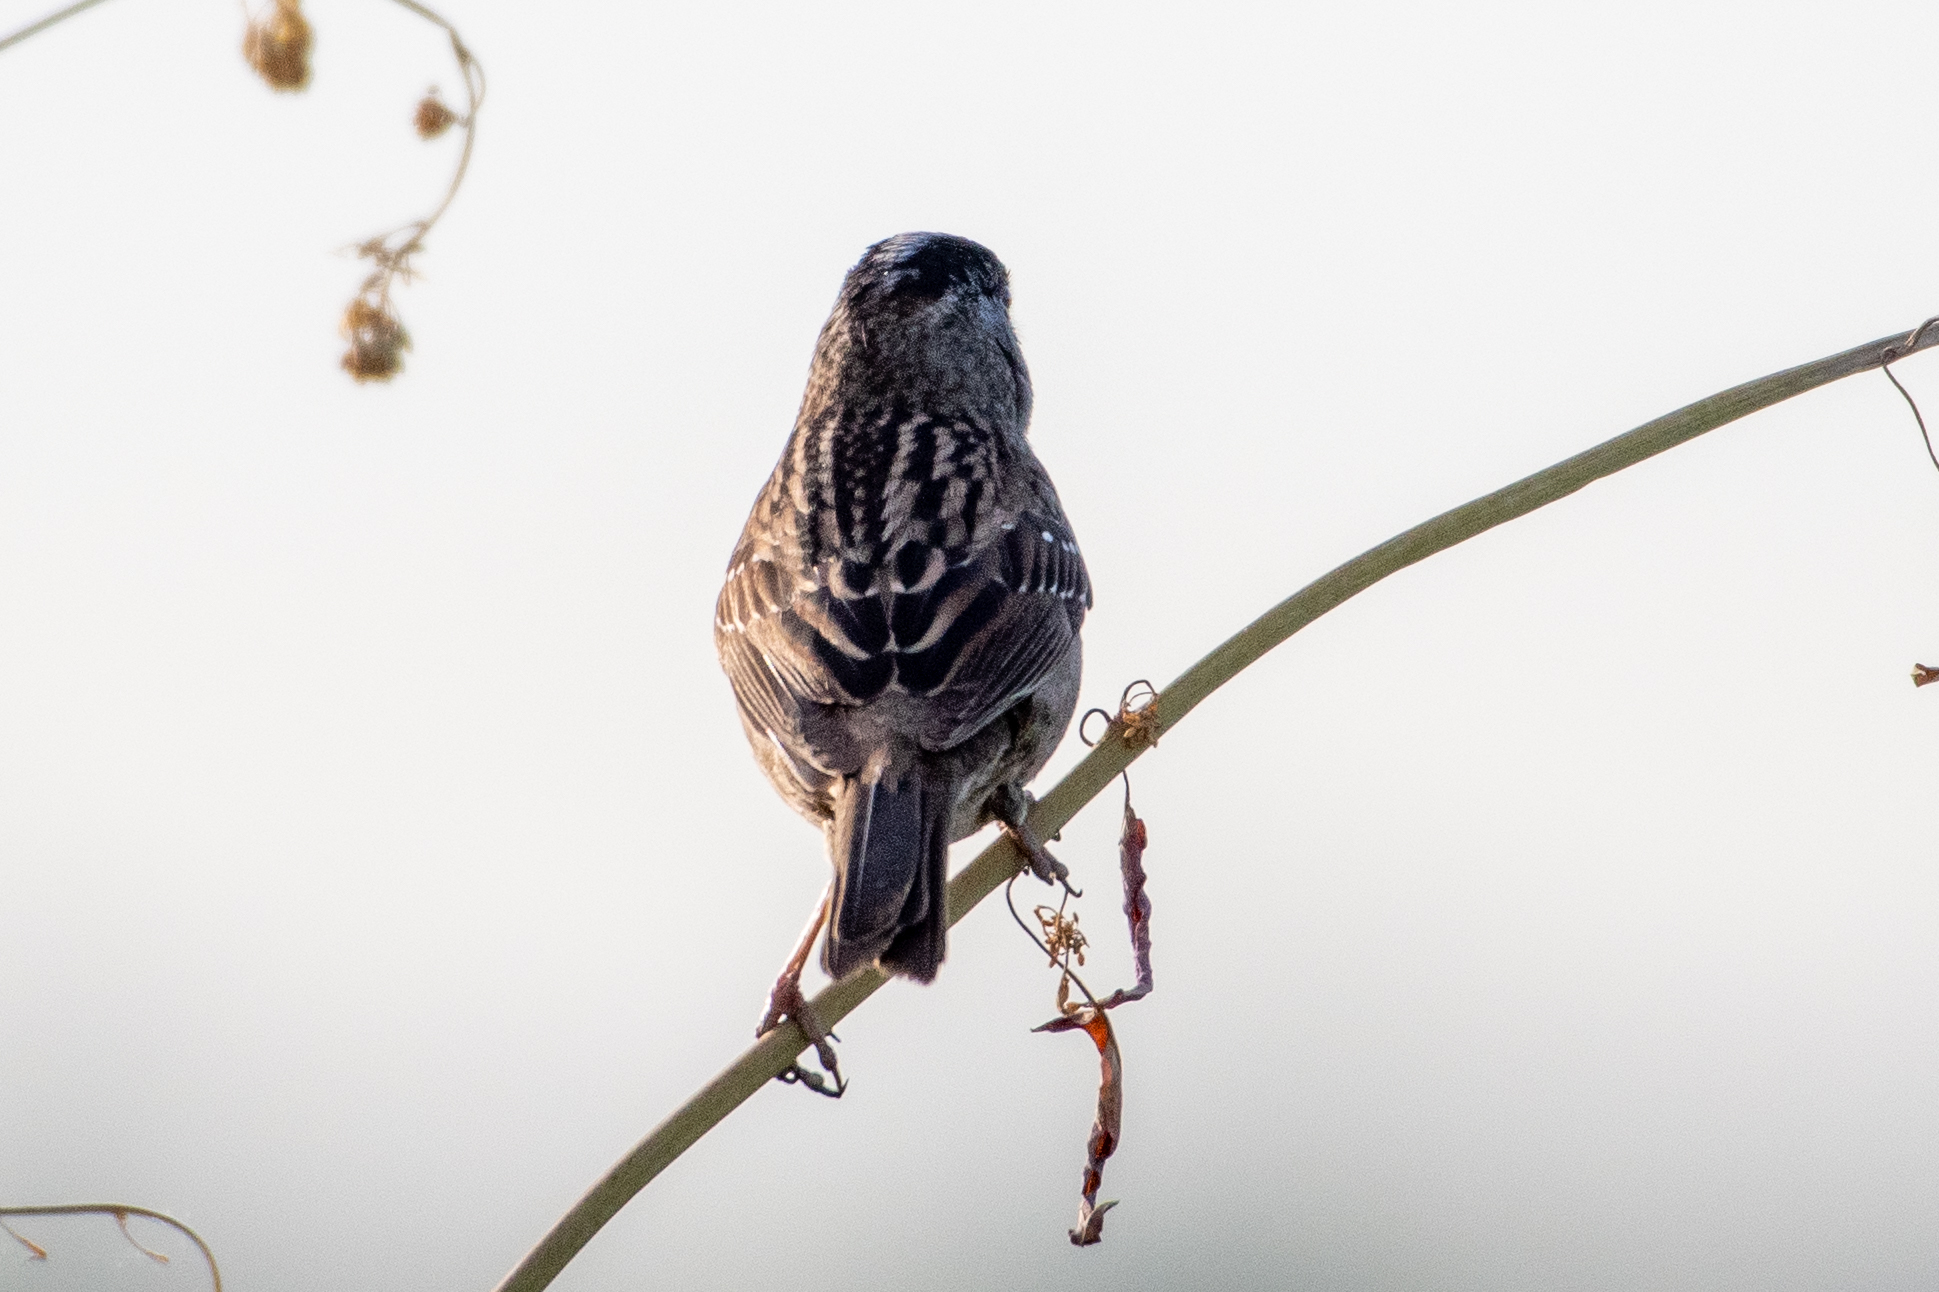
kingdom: Animalia
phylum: Chordata
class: Aves
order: Passeriformes
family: Passerellidae
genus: Zonotrichia
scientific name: Zonotrichia atricapilla
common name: Golden-crowned sparrow
